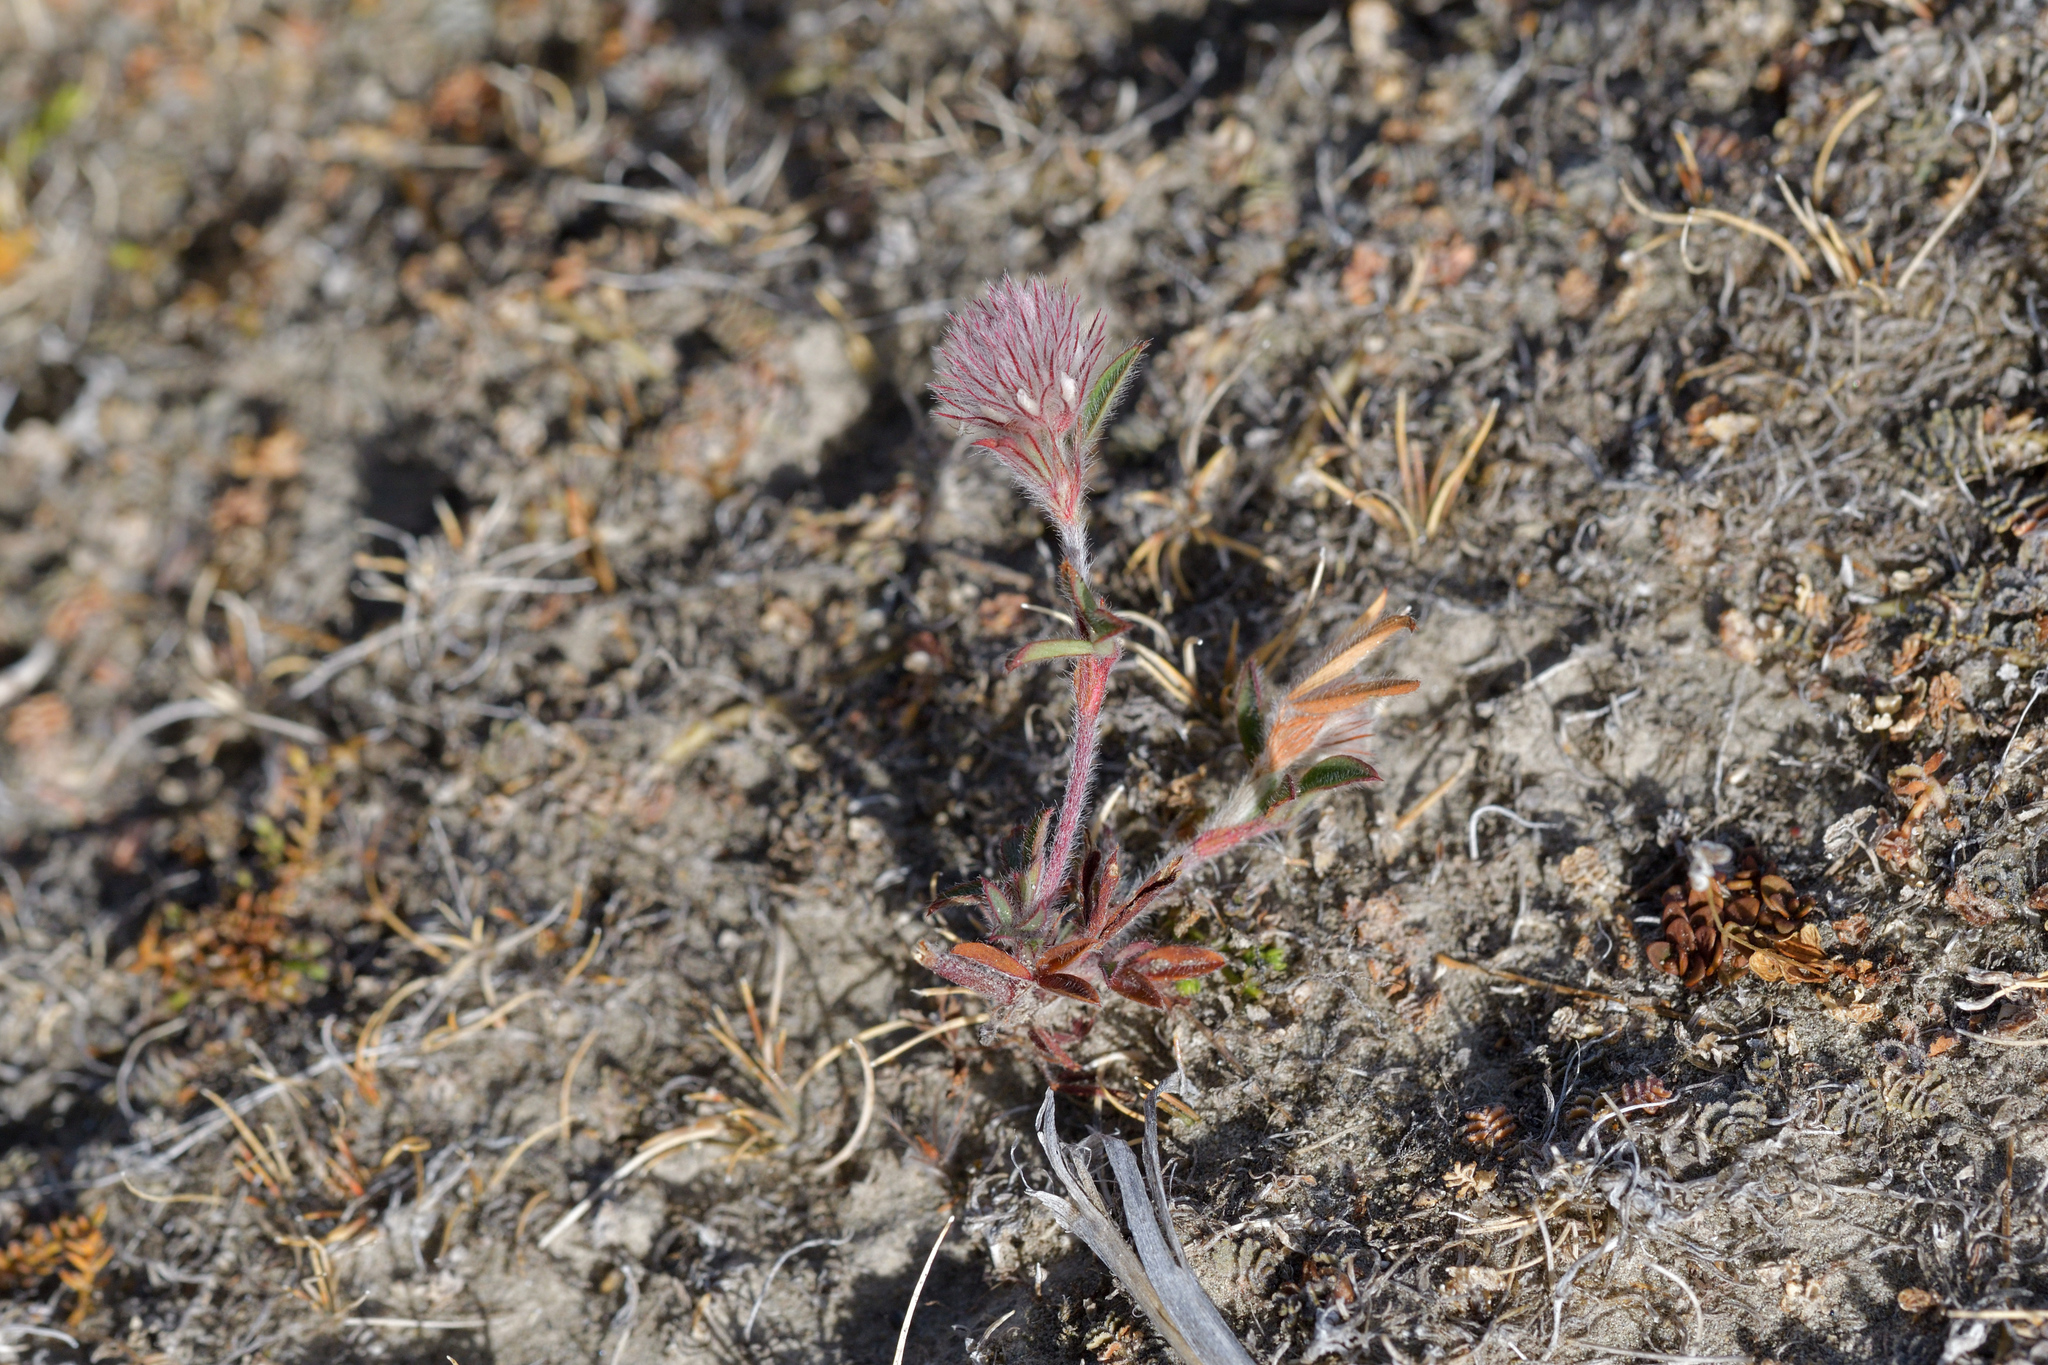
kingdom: Plantae
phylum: Tracheophyta
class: Magnoliopsida
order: Fabales
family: Fabaceae
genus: Trifolium
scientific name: Trifolium arvense
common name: Hare's-foot clover
